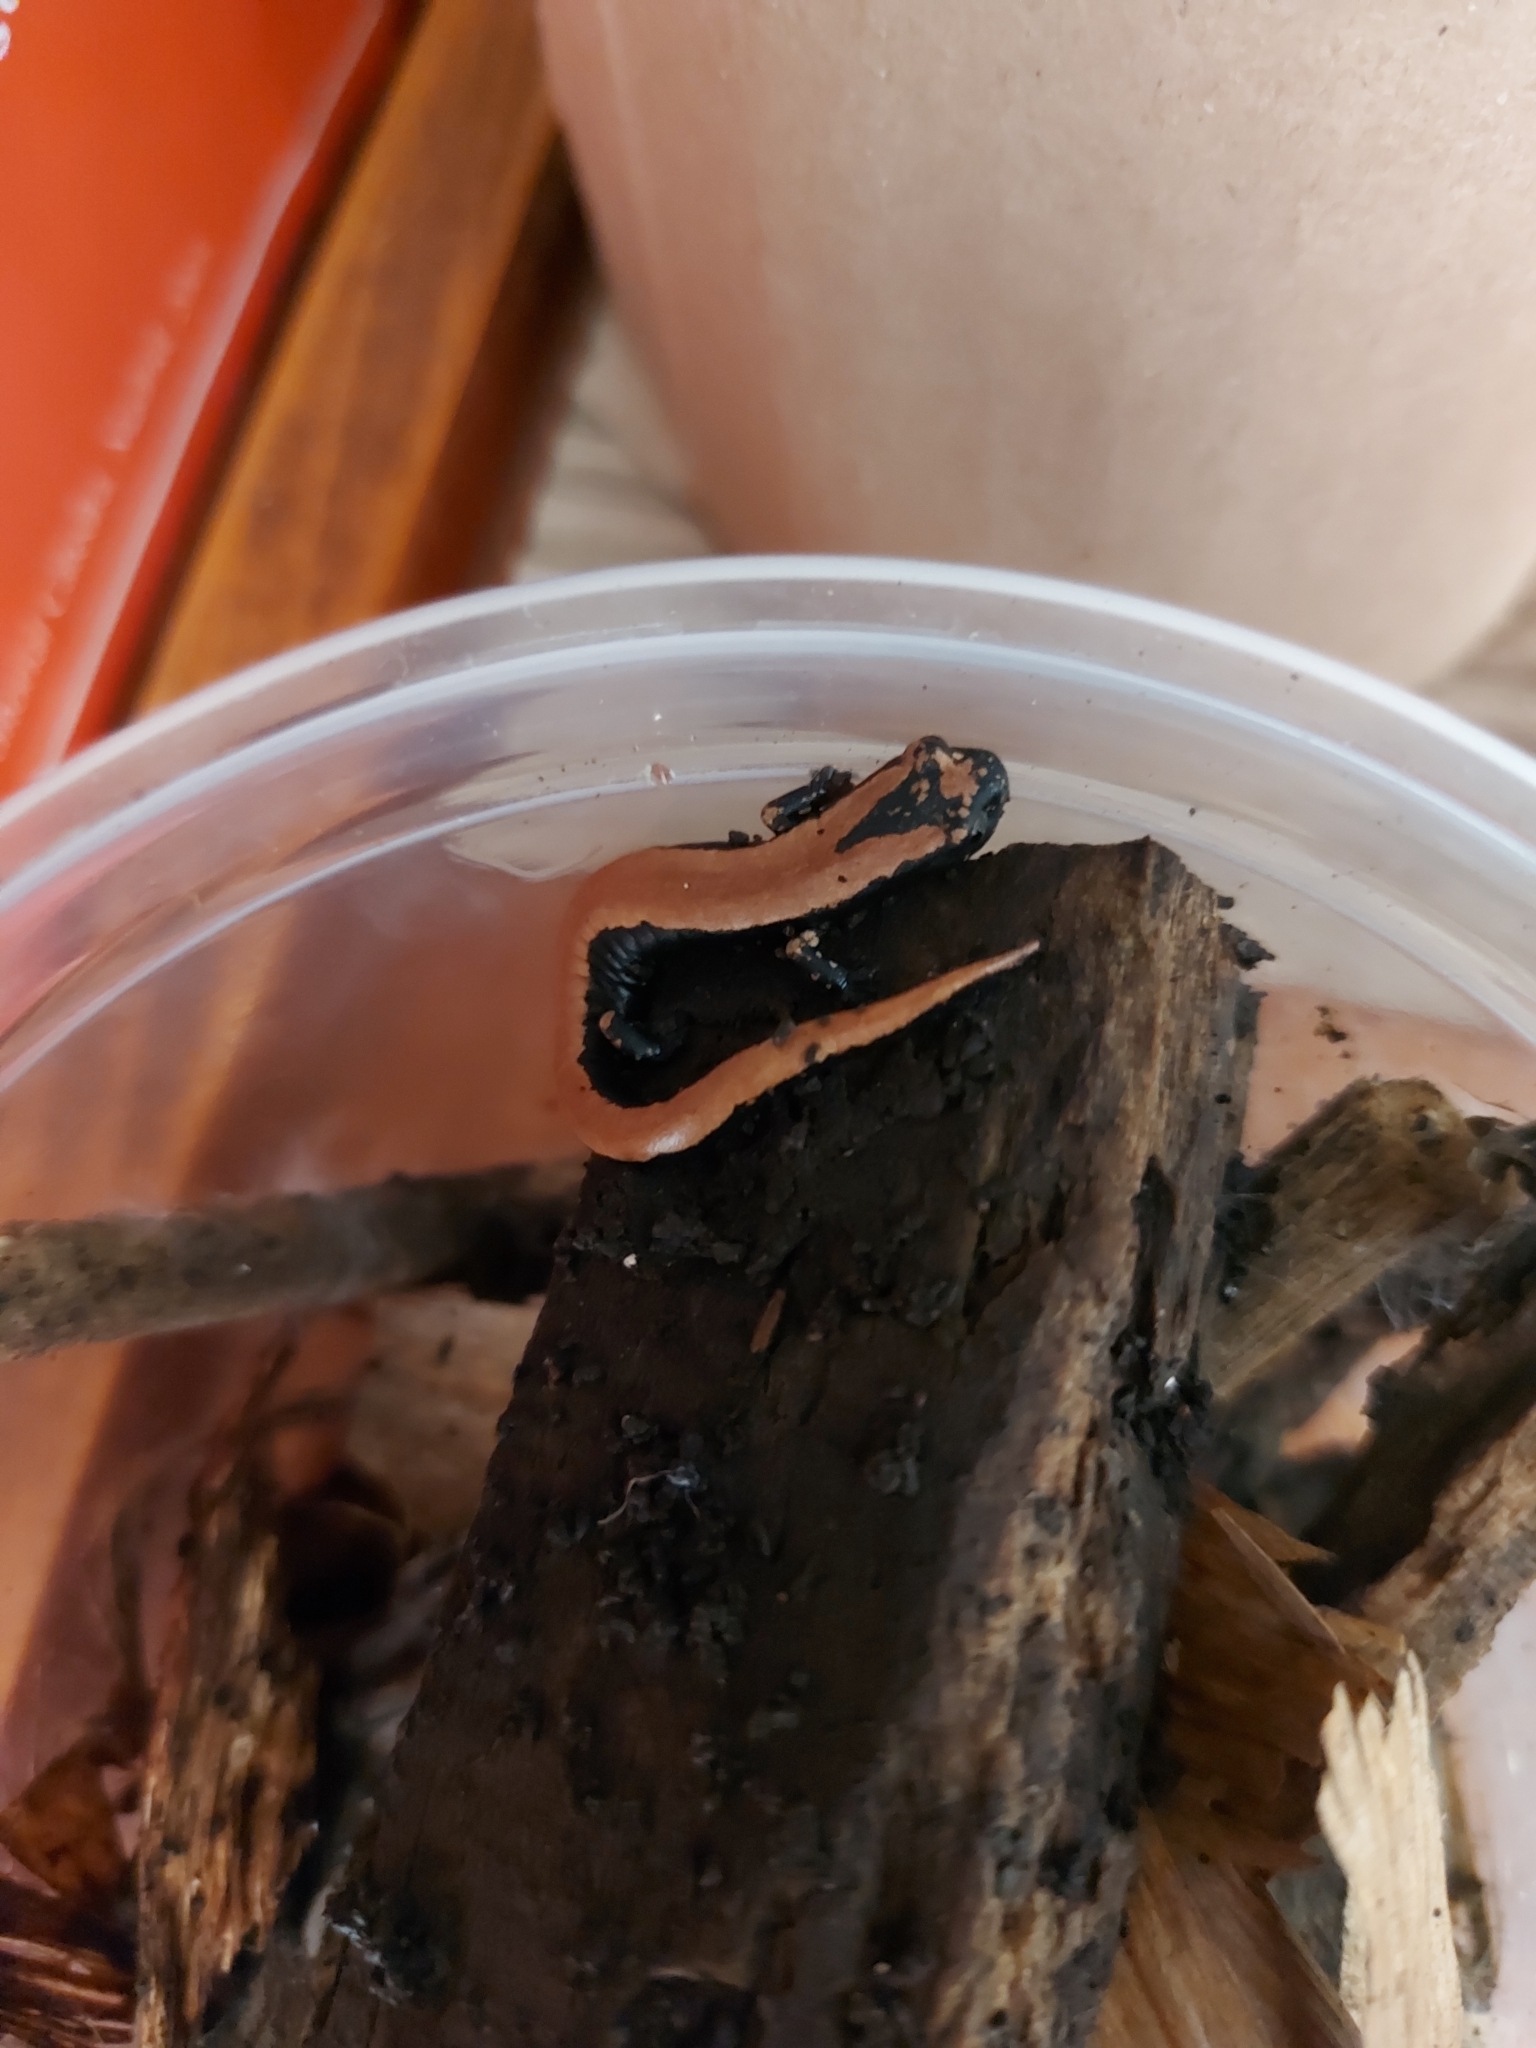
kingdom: Animalia
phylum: Chordata
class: Amphibia
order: Caudata
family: Plethodontidae
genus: Bolitoglossa
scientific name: Bolitoglossa platydactyla
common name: Broad-footed salamander
